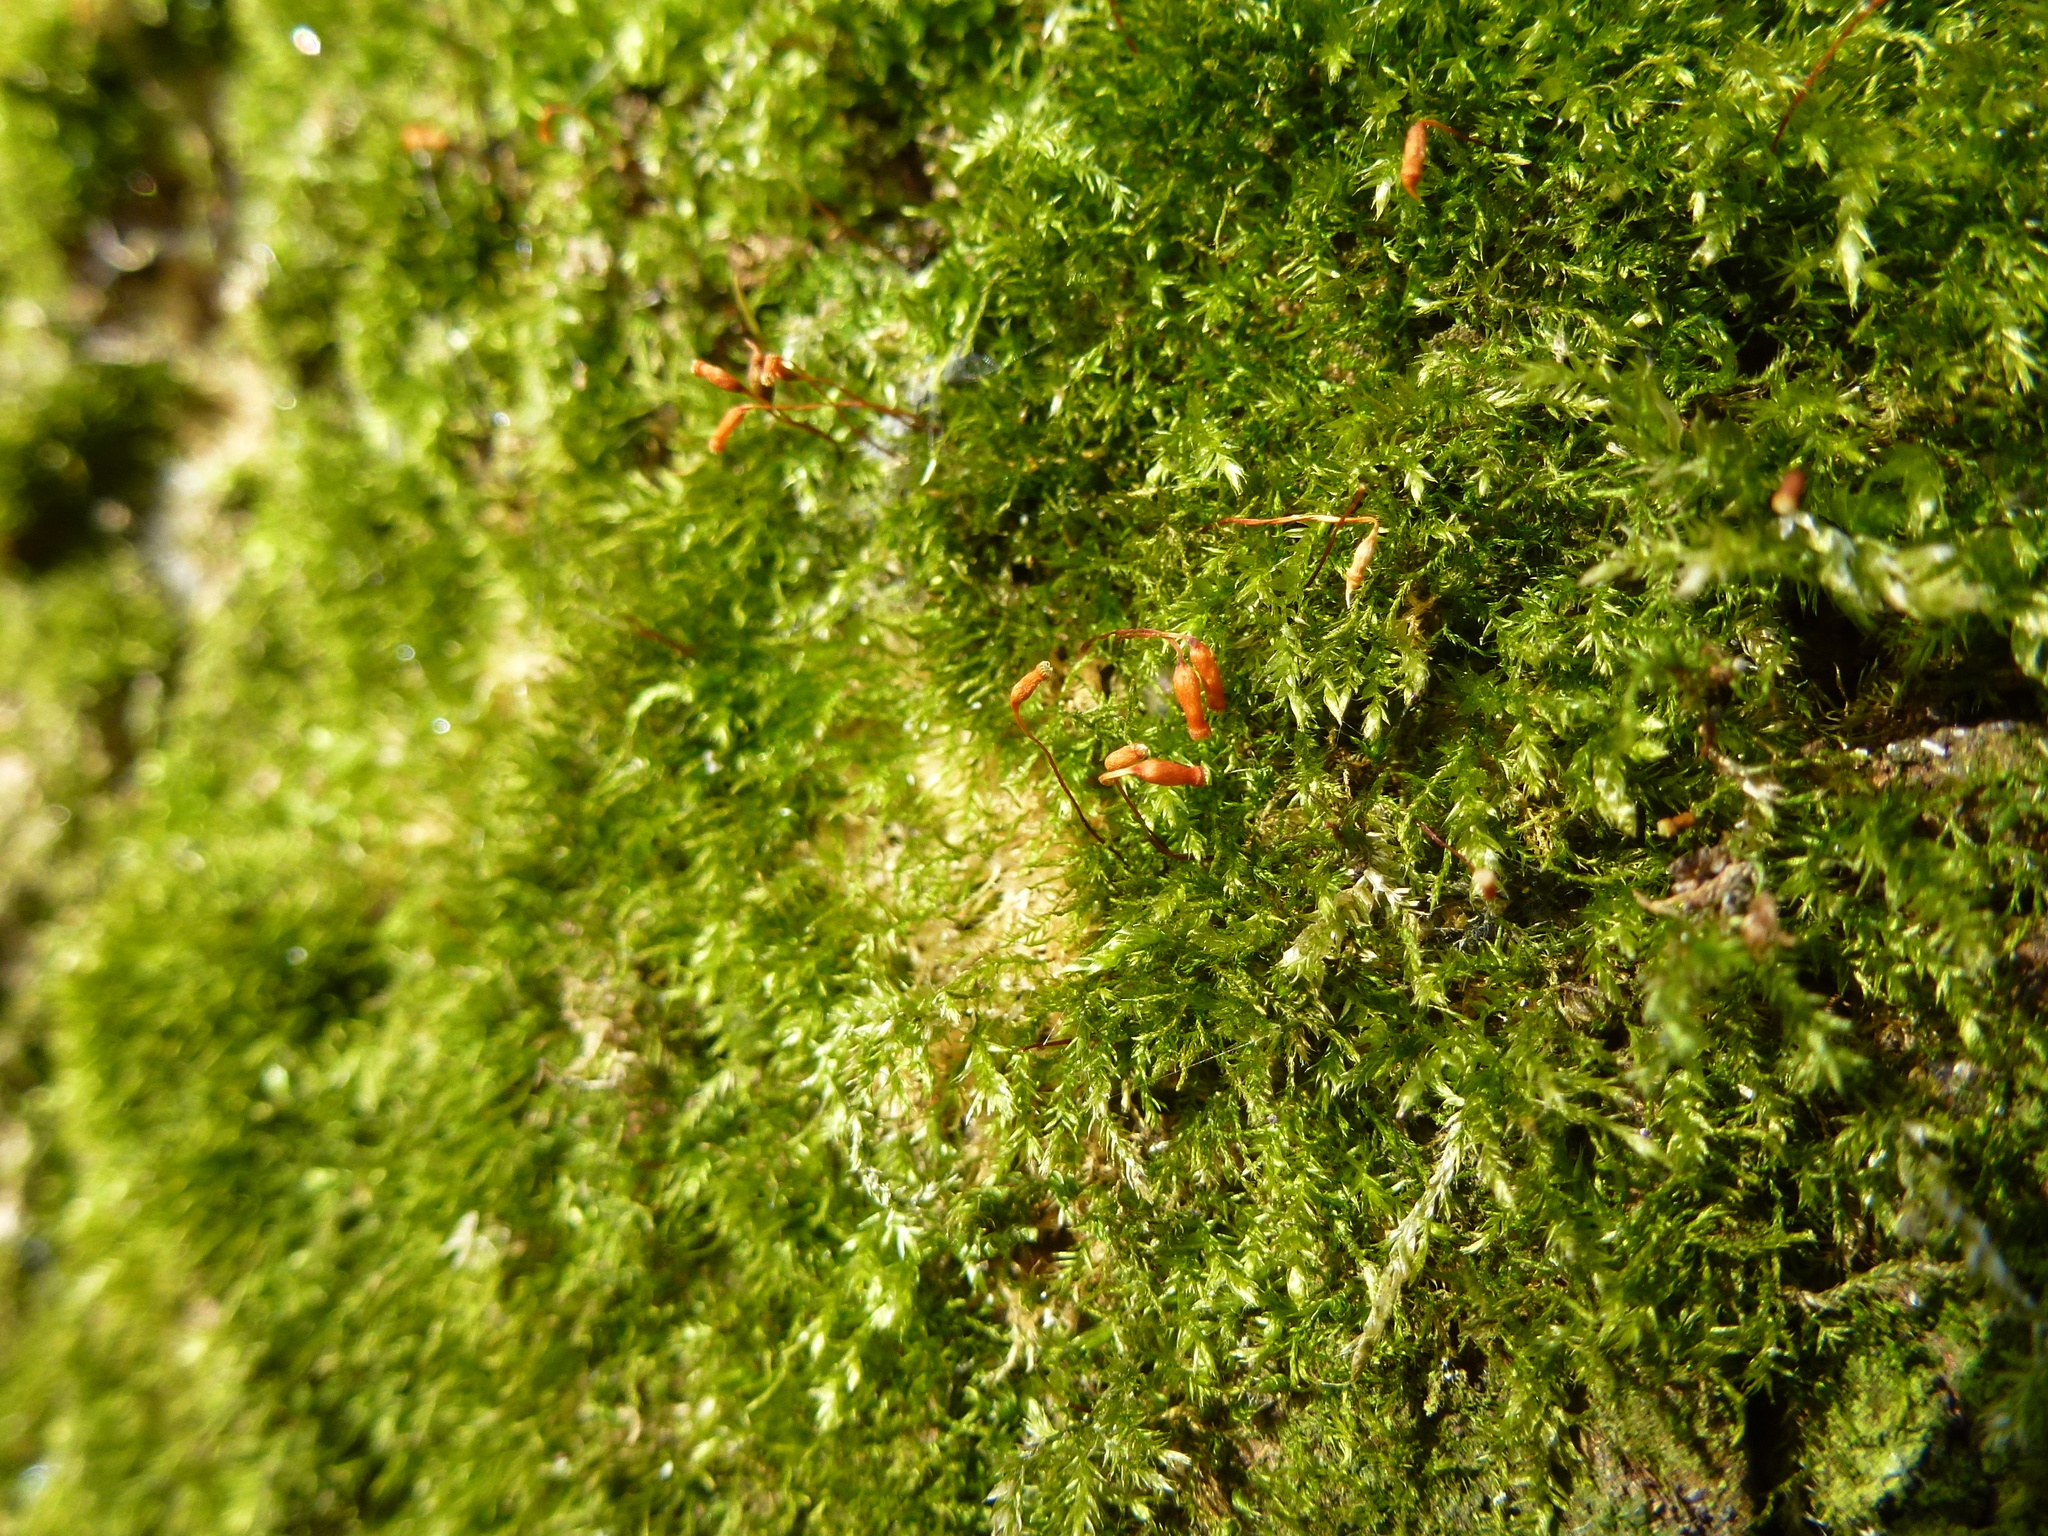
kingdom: Plantae
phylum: Bryophyta
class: Bryopsida
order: Hypnales
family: Brachytheciaceae
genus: Rhynchostegium
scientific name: Rhynchostegium confertum
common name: Clustered feather-moss
